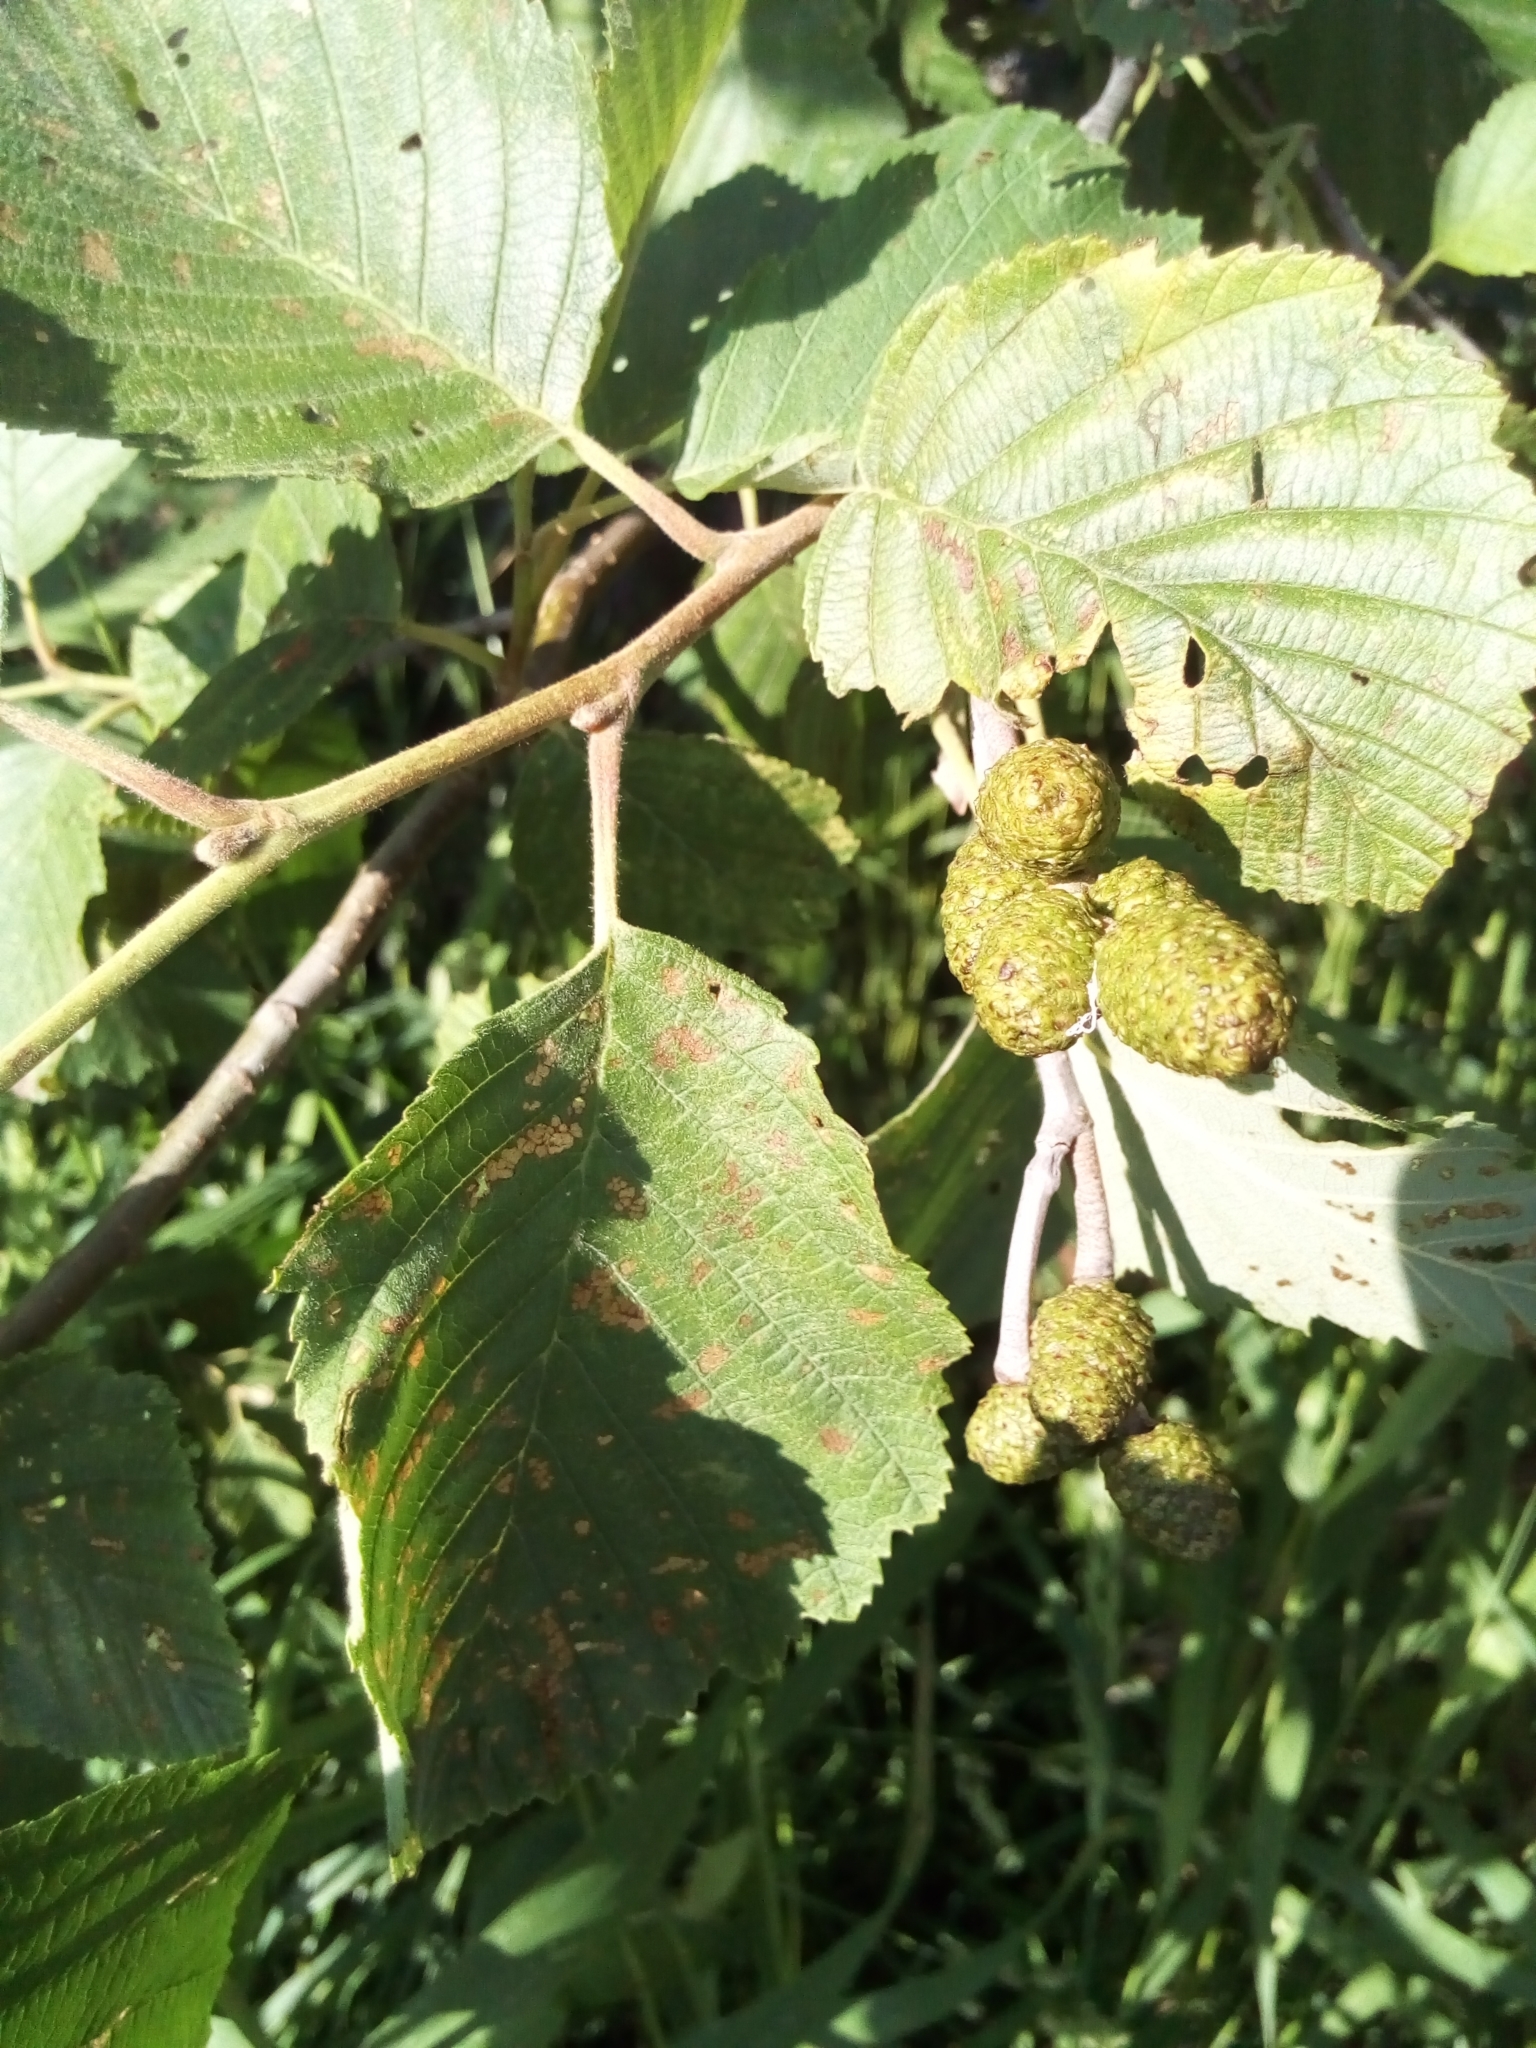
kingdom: Plantae
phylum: Tracheophyta
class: Magnoliopsida
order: Fagales
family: Betulaceae
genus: Alnus
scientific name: Alnus incana
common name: Grey alder
